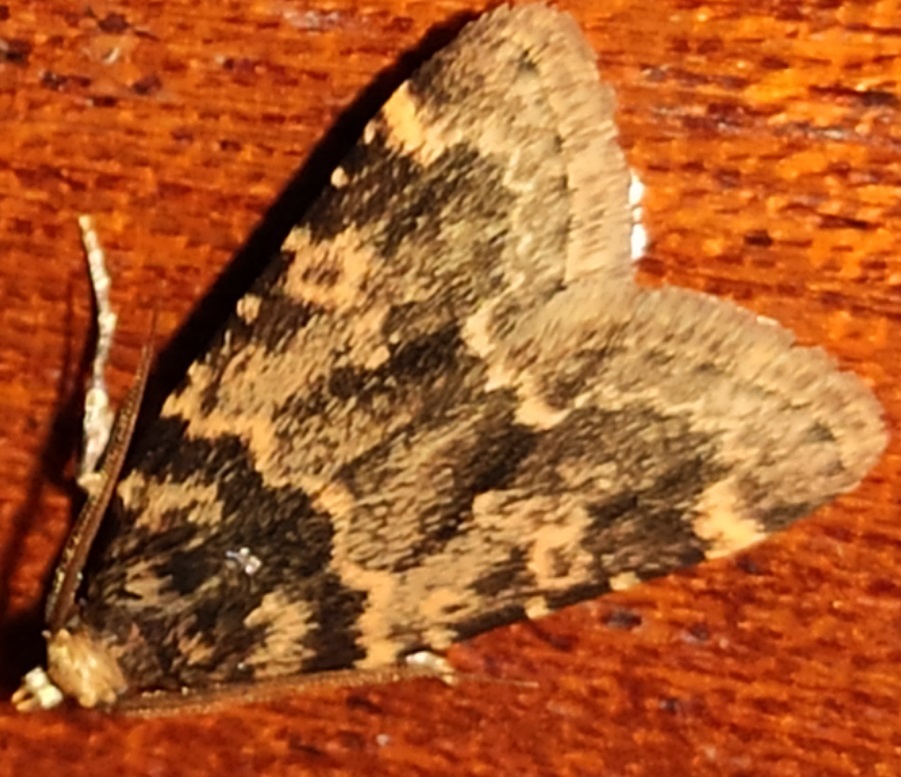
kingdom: Animalia
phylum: Arthropoda
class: Insecta
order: Lepidoptera
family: Pyralidae
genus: Aglossa
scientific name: Aglossa caprealis
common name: Small tabby
